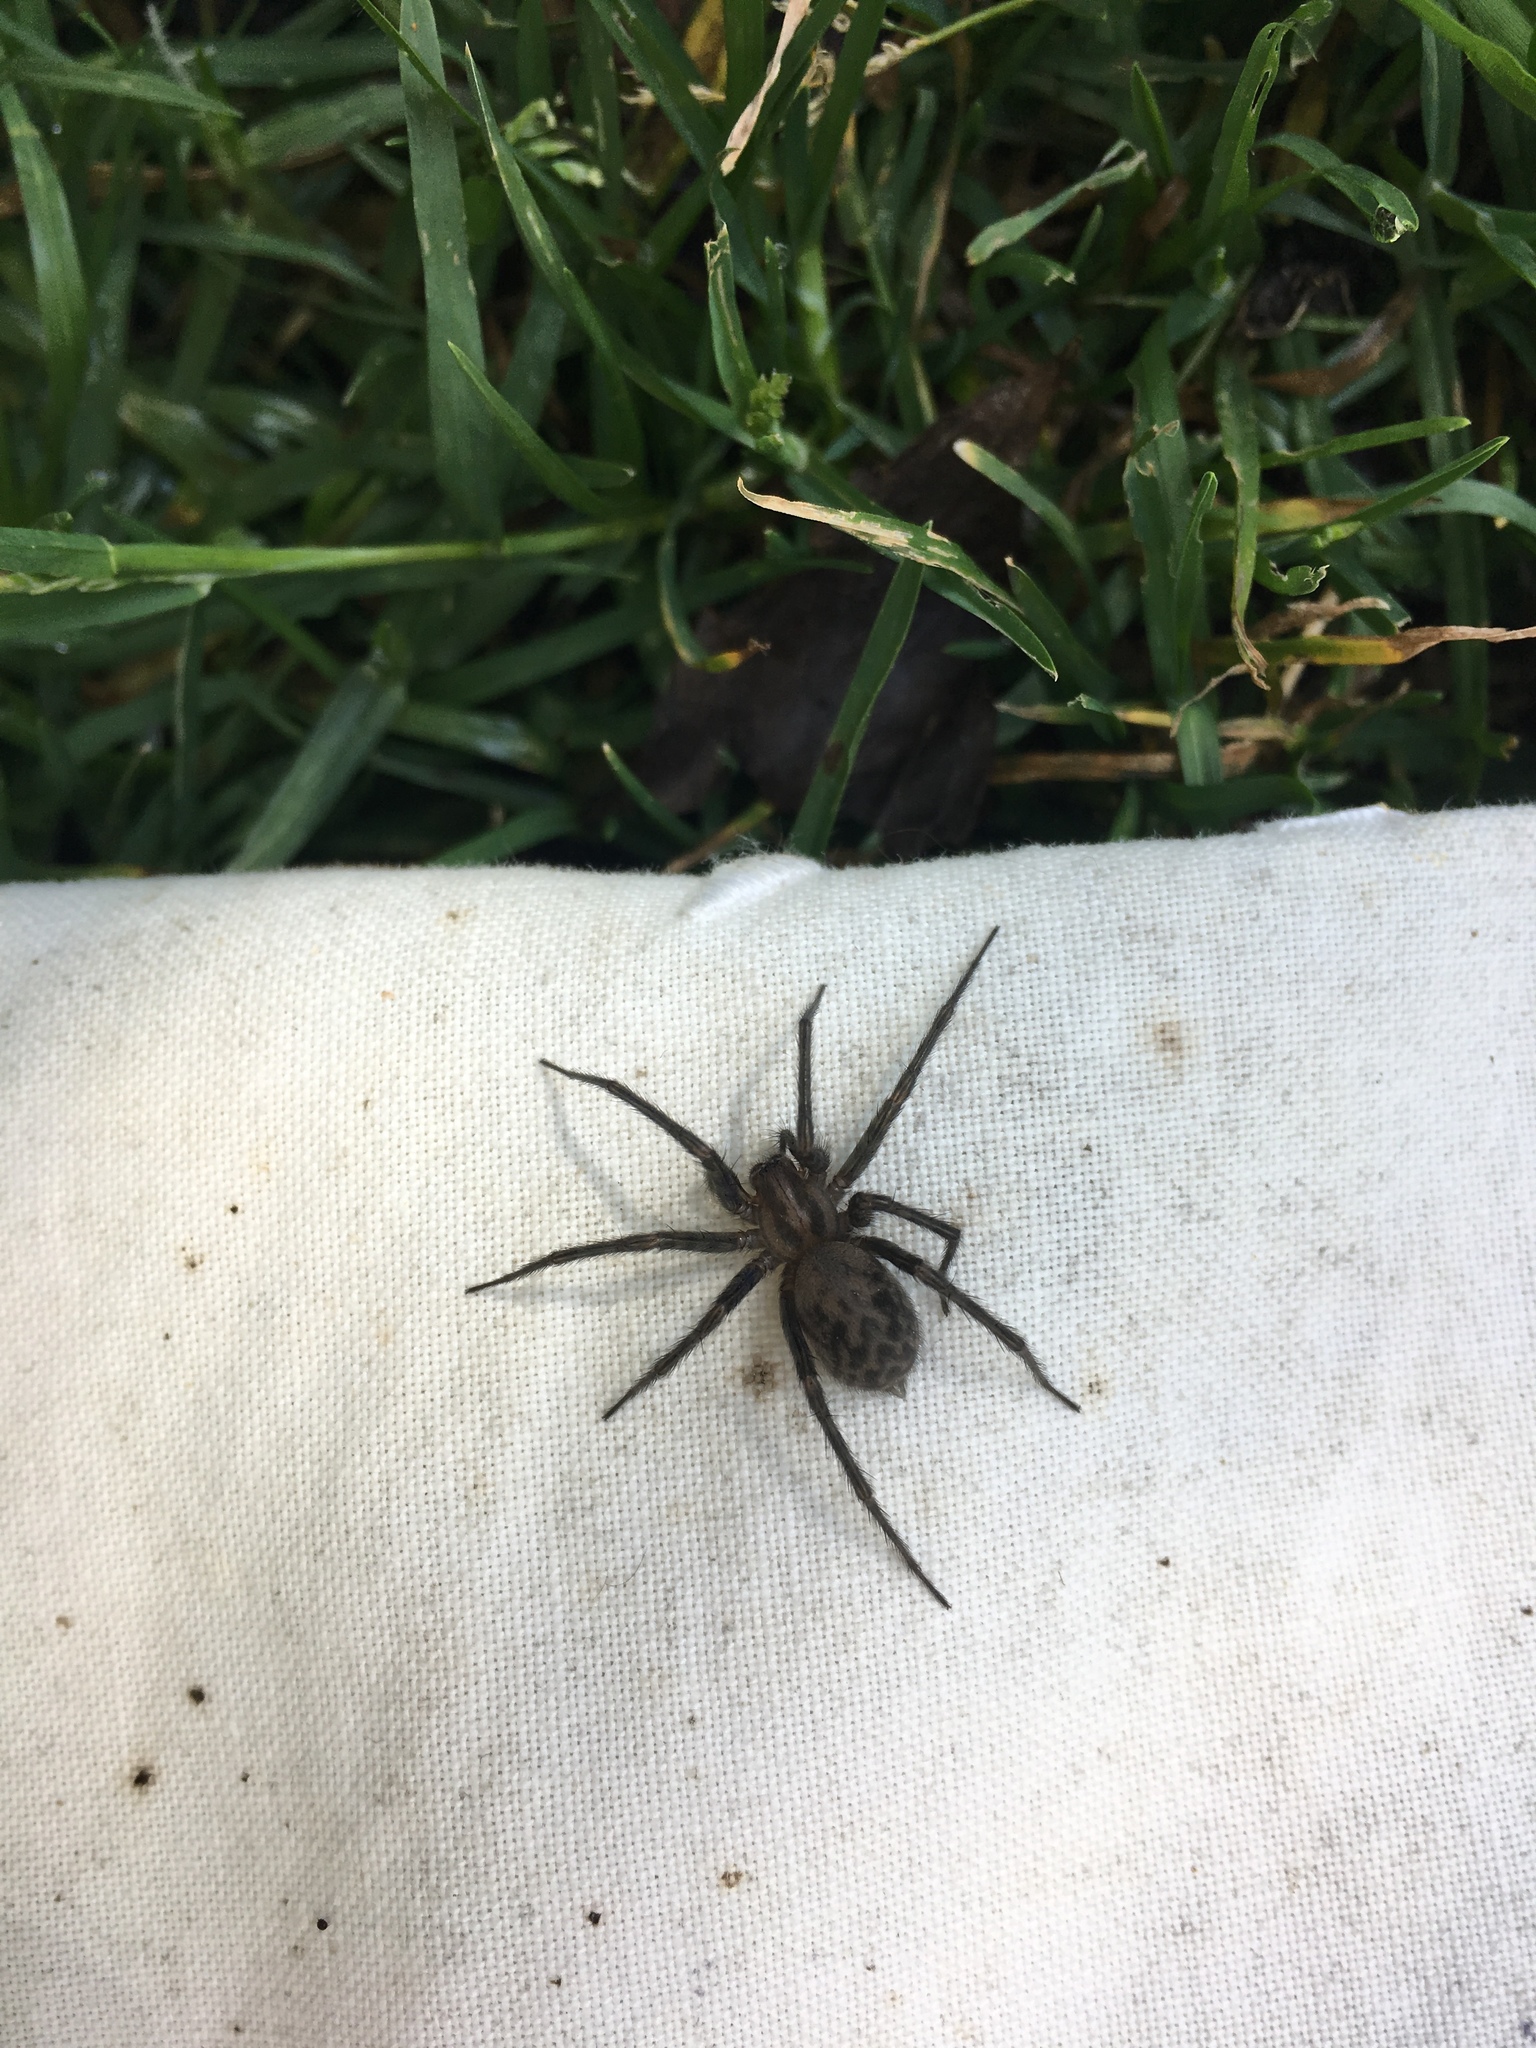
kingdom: Animalia
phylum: Arthropoda
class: Arachnida
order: Araneae
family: Agelenidae
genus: Tegenaria
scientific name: Tegenaria domestica
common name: Barn funnel weaver
